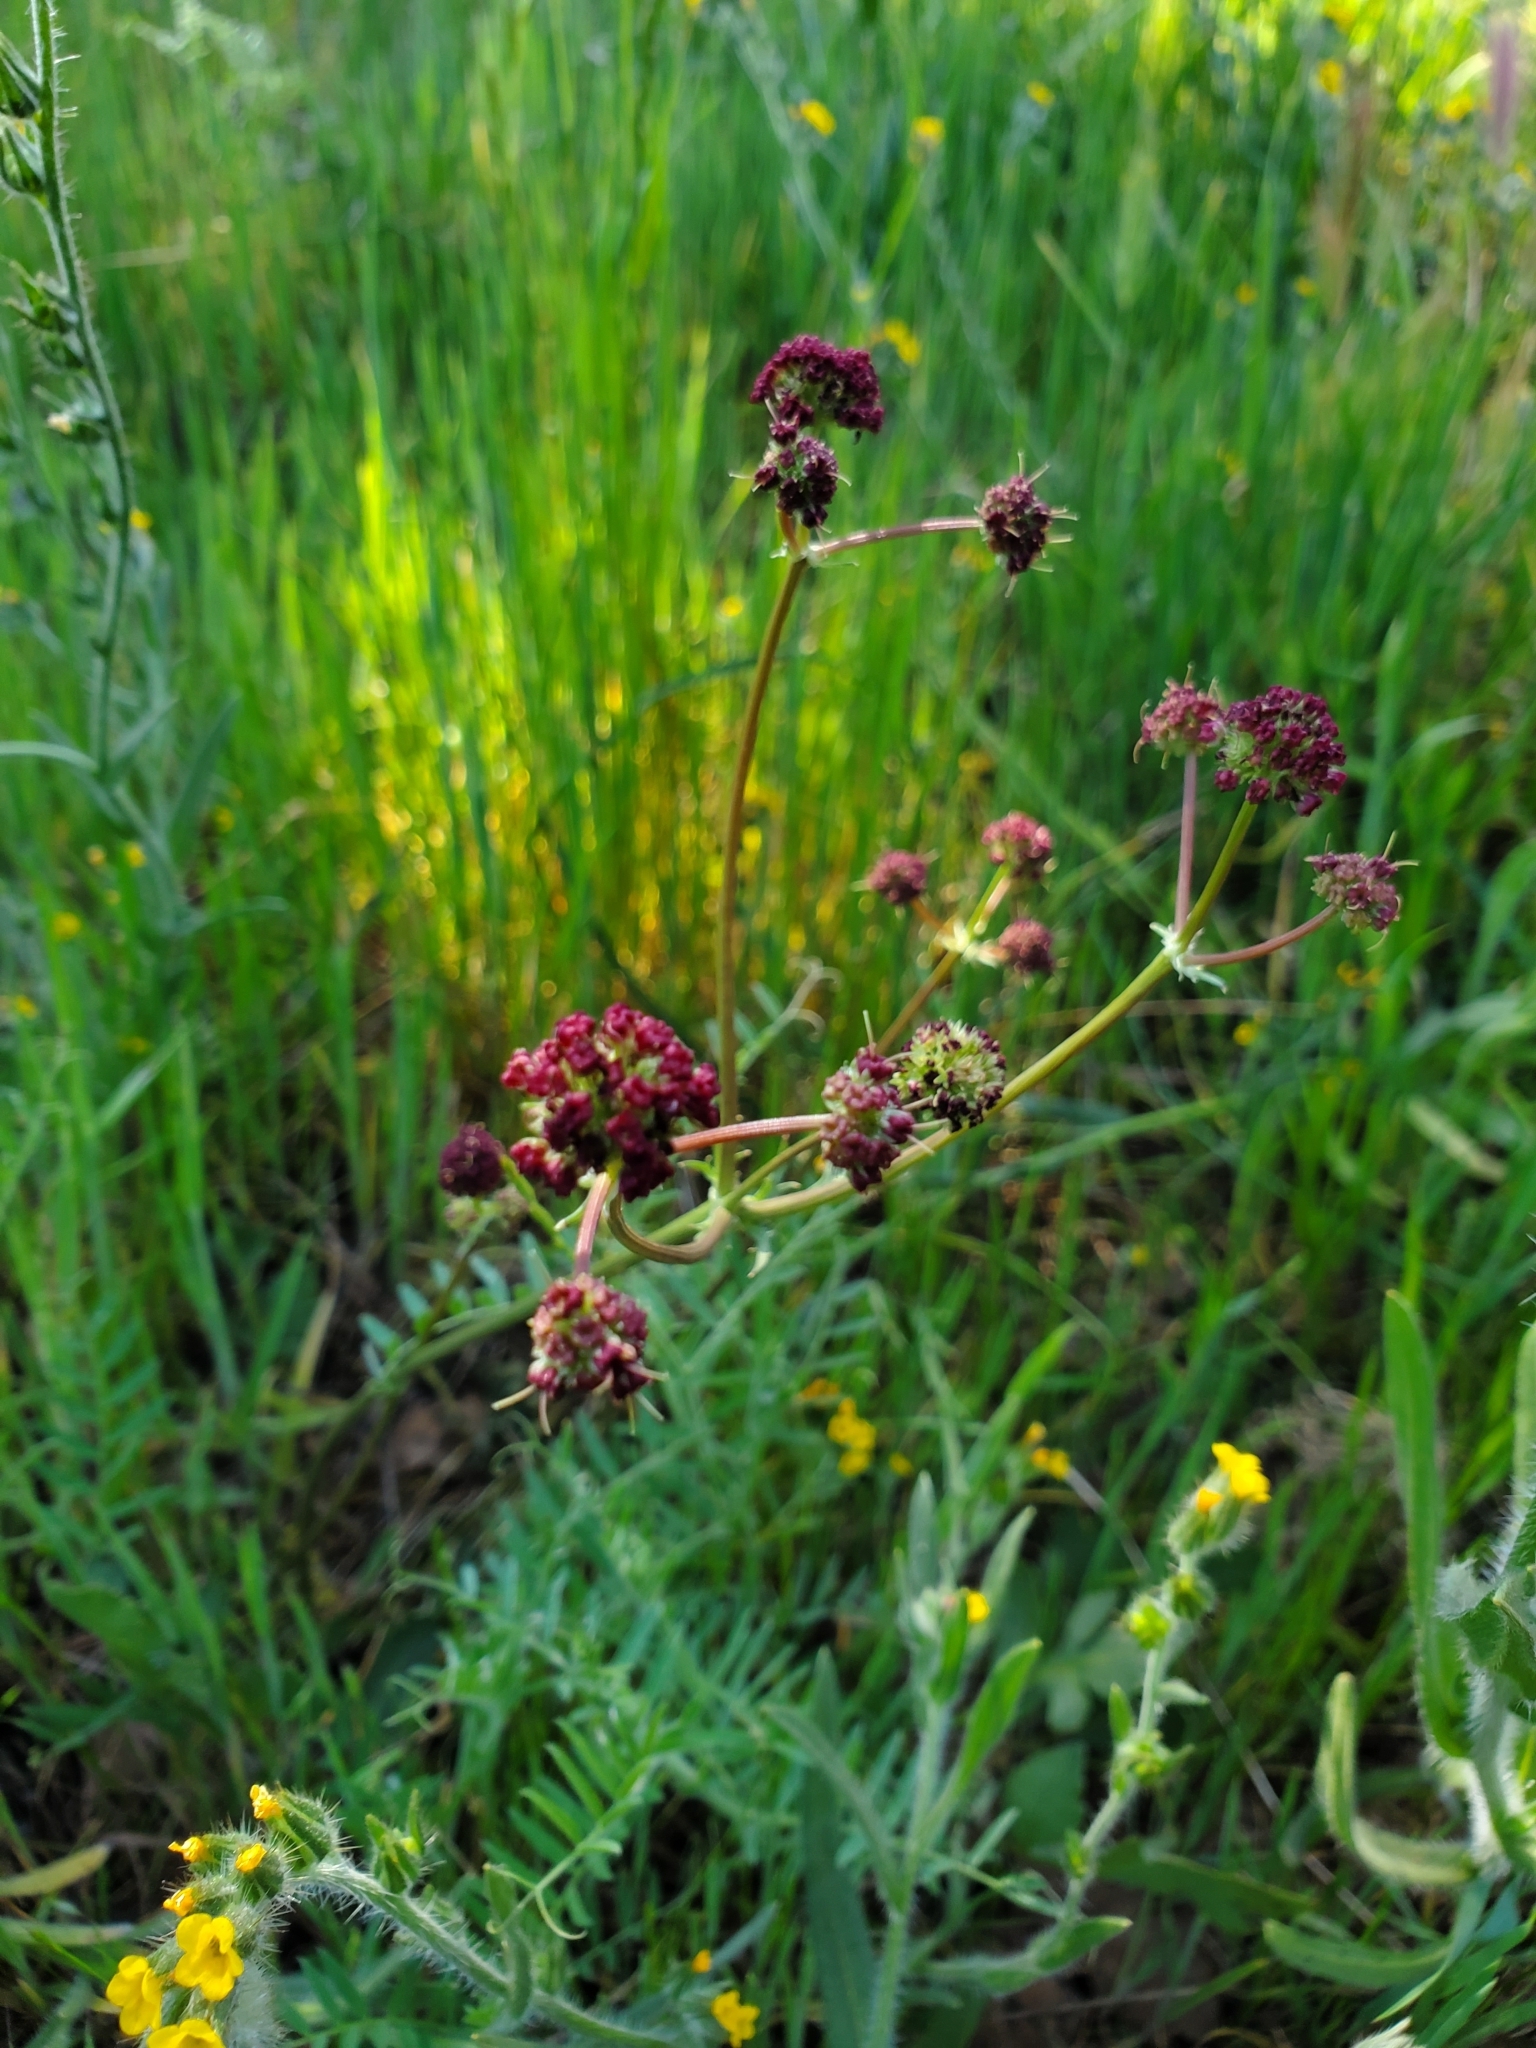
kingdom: Plantae
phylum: Tracheophyta
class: Magnoliopsida
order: Apiales
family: Apiaceae
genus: Sanicula
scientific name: Sanicula bipinnatifida
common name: Shoe-buttons
